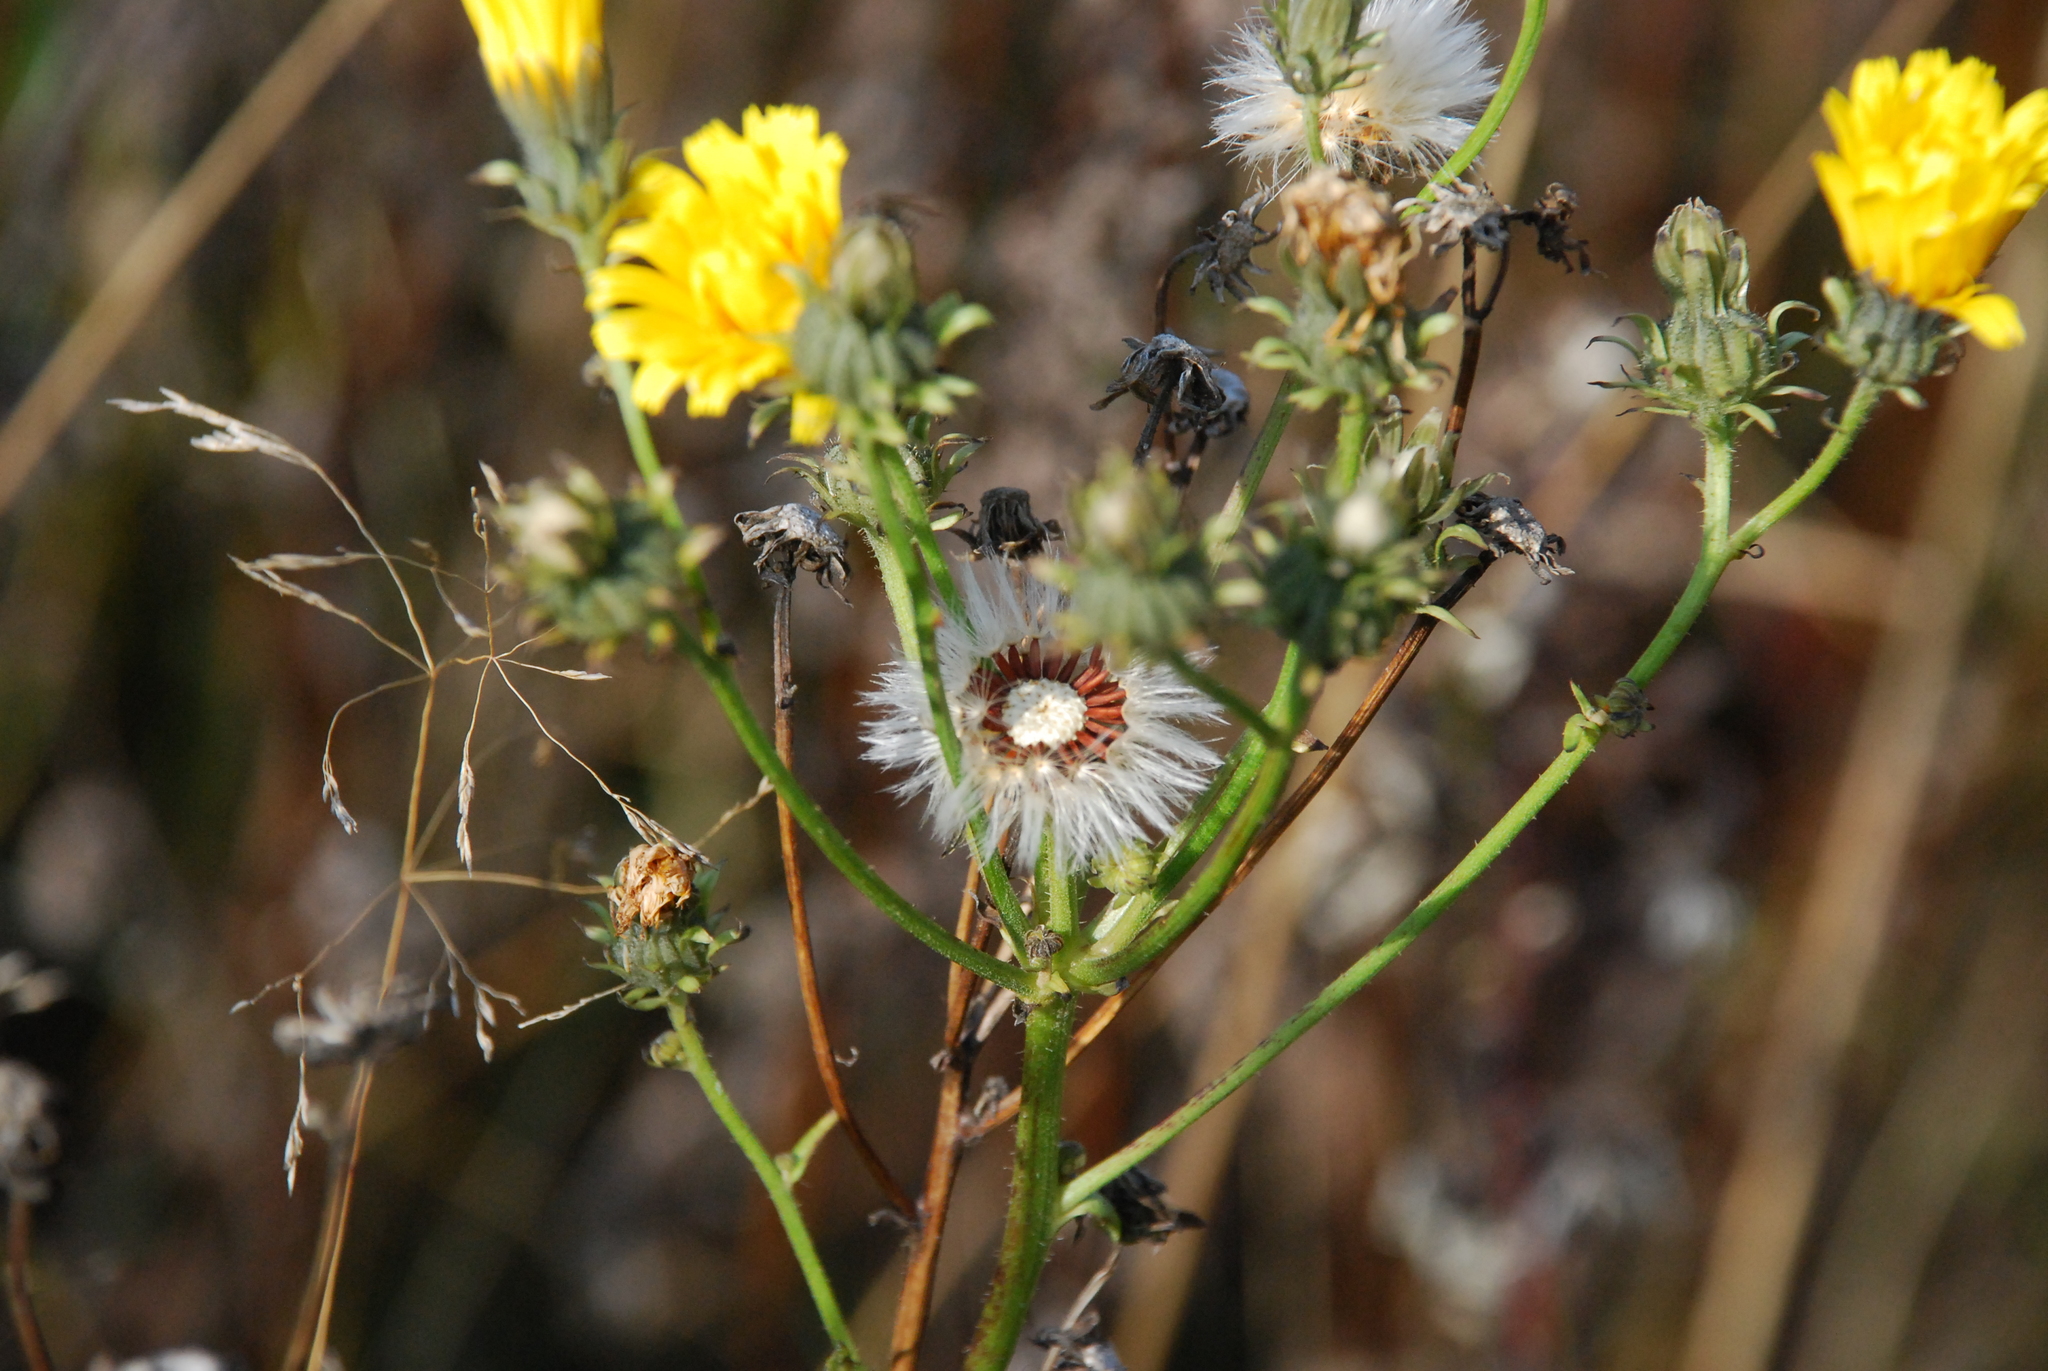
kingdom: Plantae
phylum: Tracheophyta
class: Magnoliopsida
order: Asterales
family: Asteraceae
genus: Picris
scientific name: Picris hieracioides
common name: Hawkweed oxtongue
